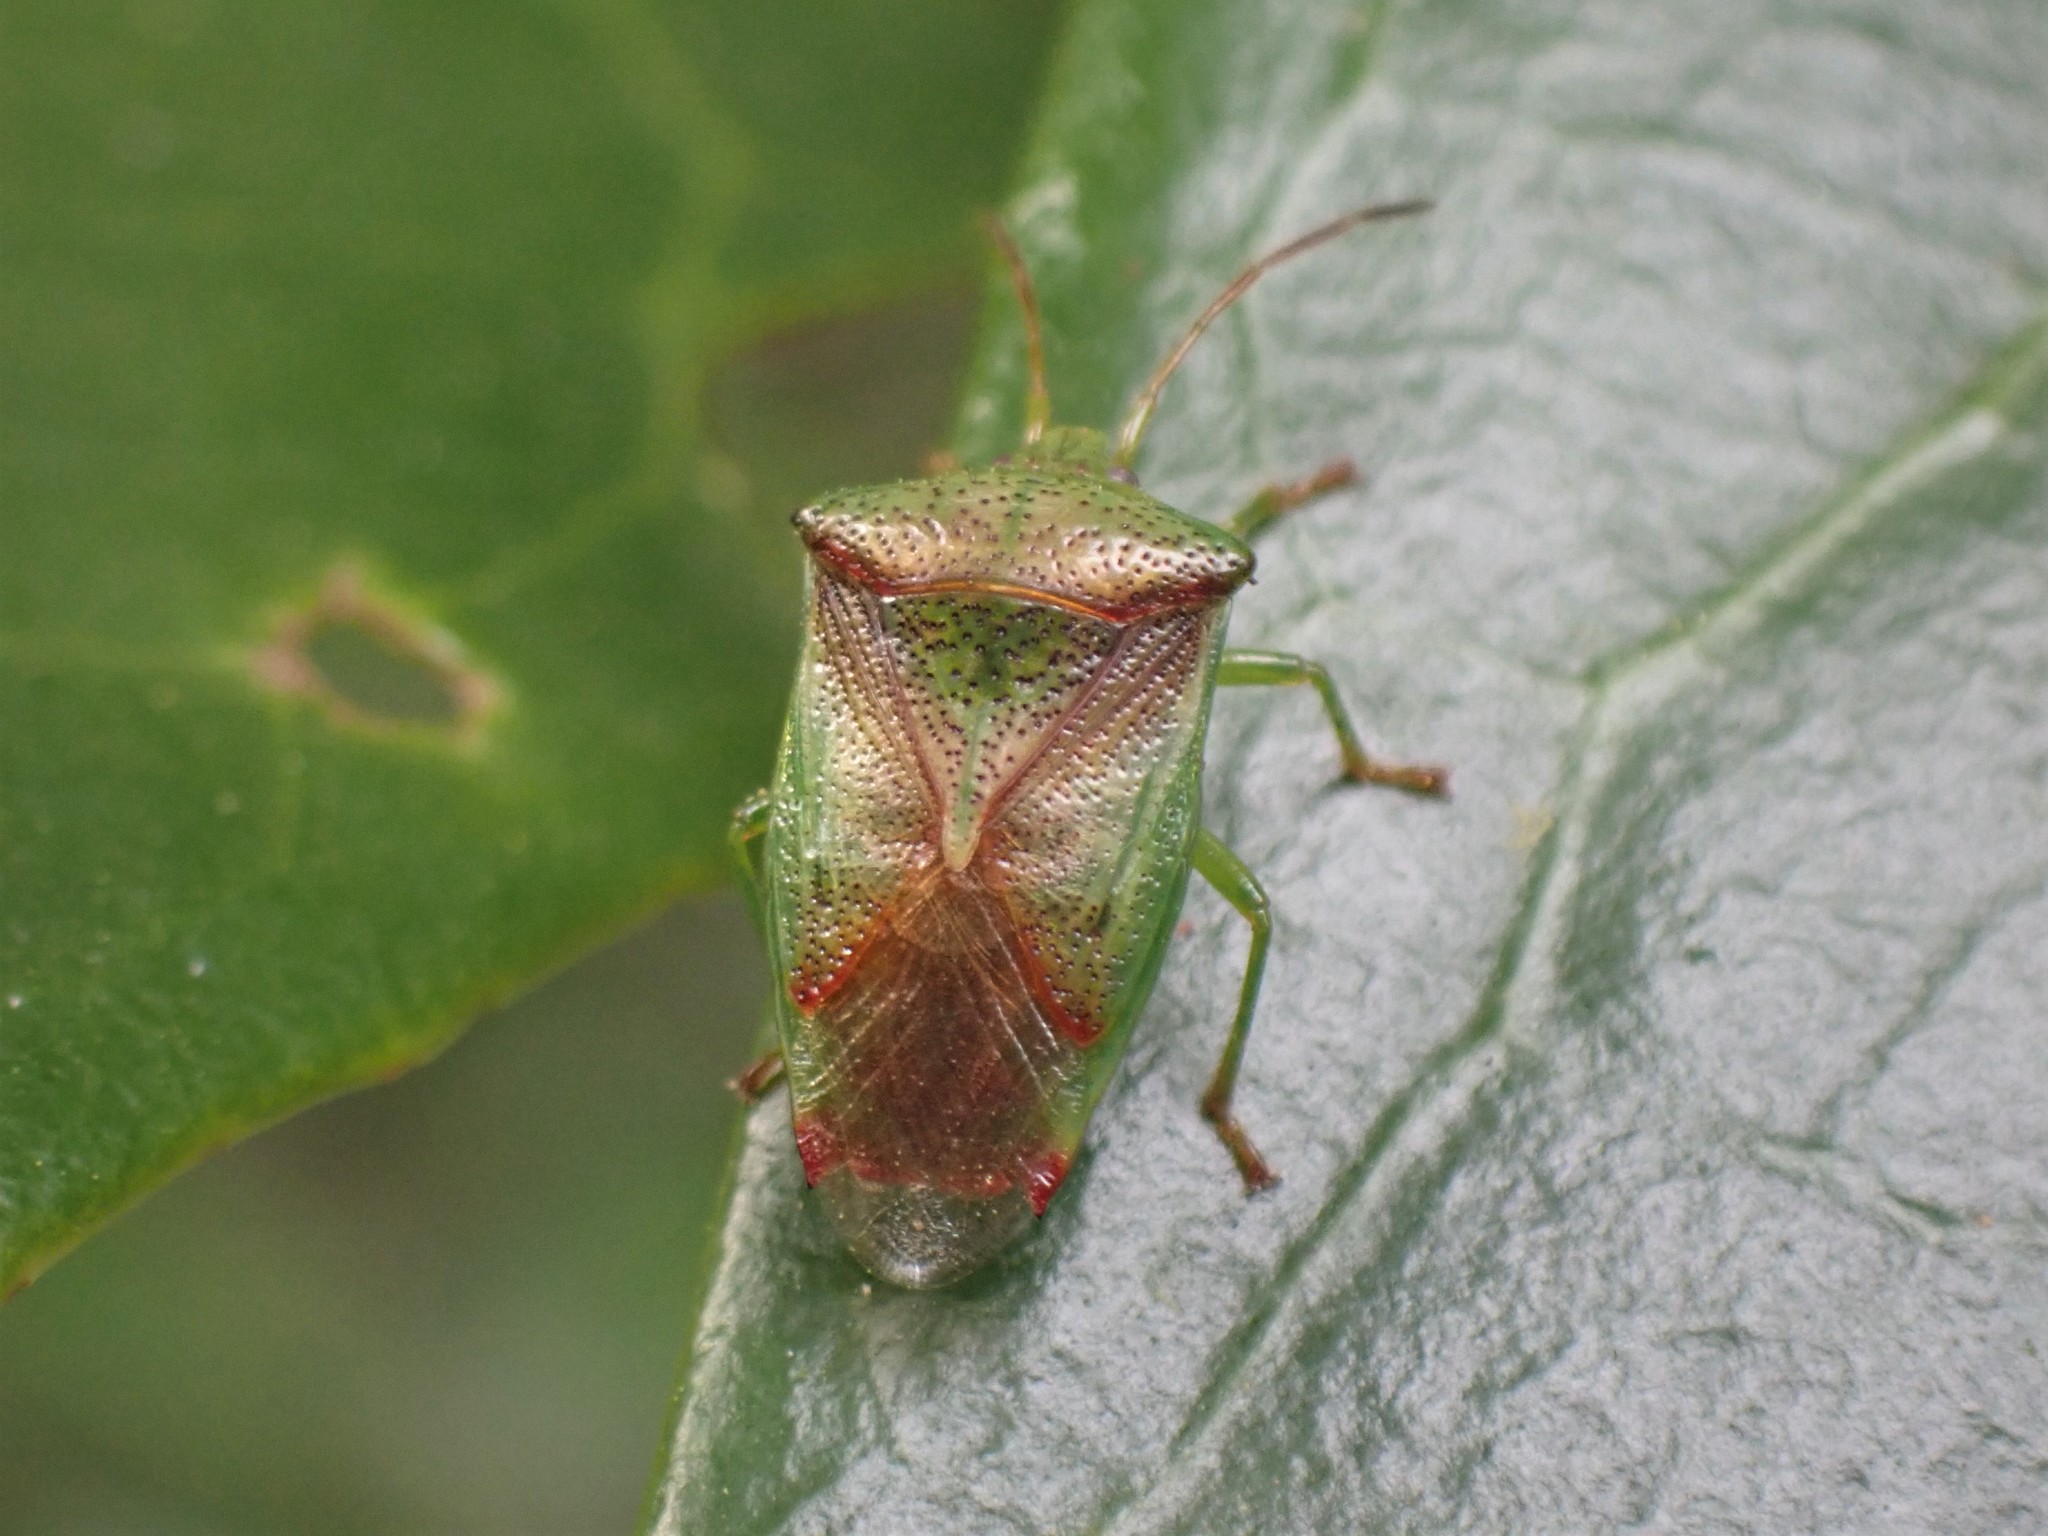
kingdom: Animalia
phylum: Arthropoda
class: Insecta
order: Hemiptera
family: Acanthosomatidae
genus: Elasmostethus
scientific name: Elasmostethus cruciatus
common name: Red-cross shield bug
